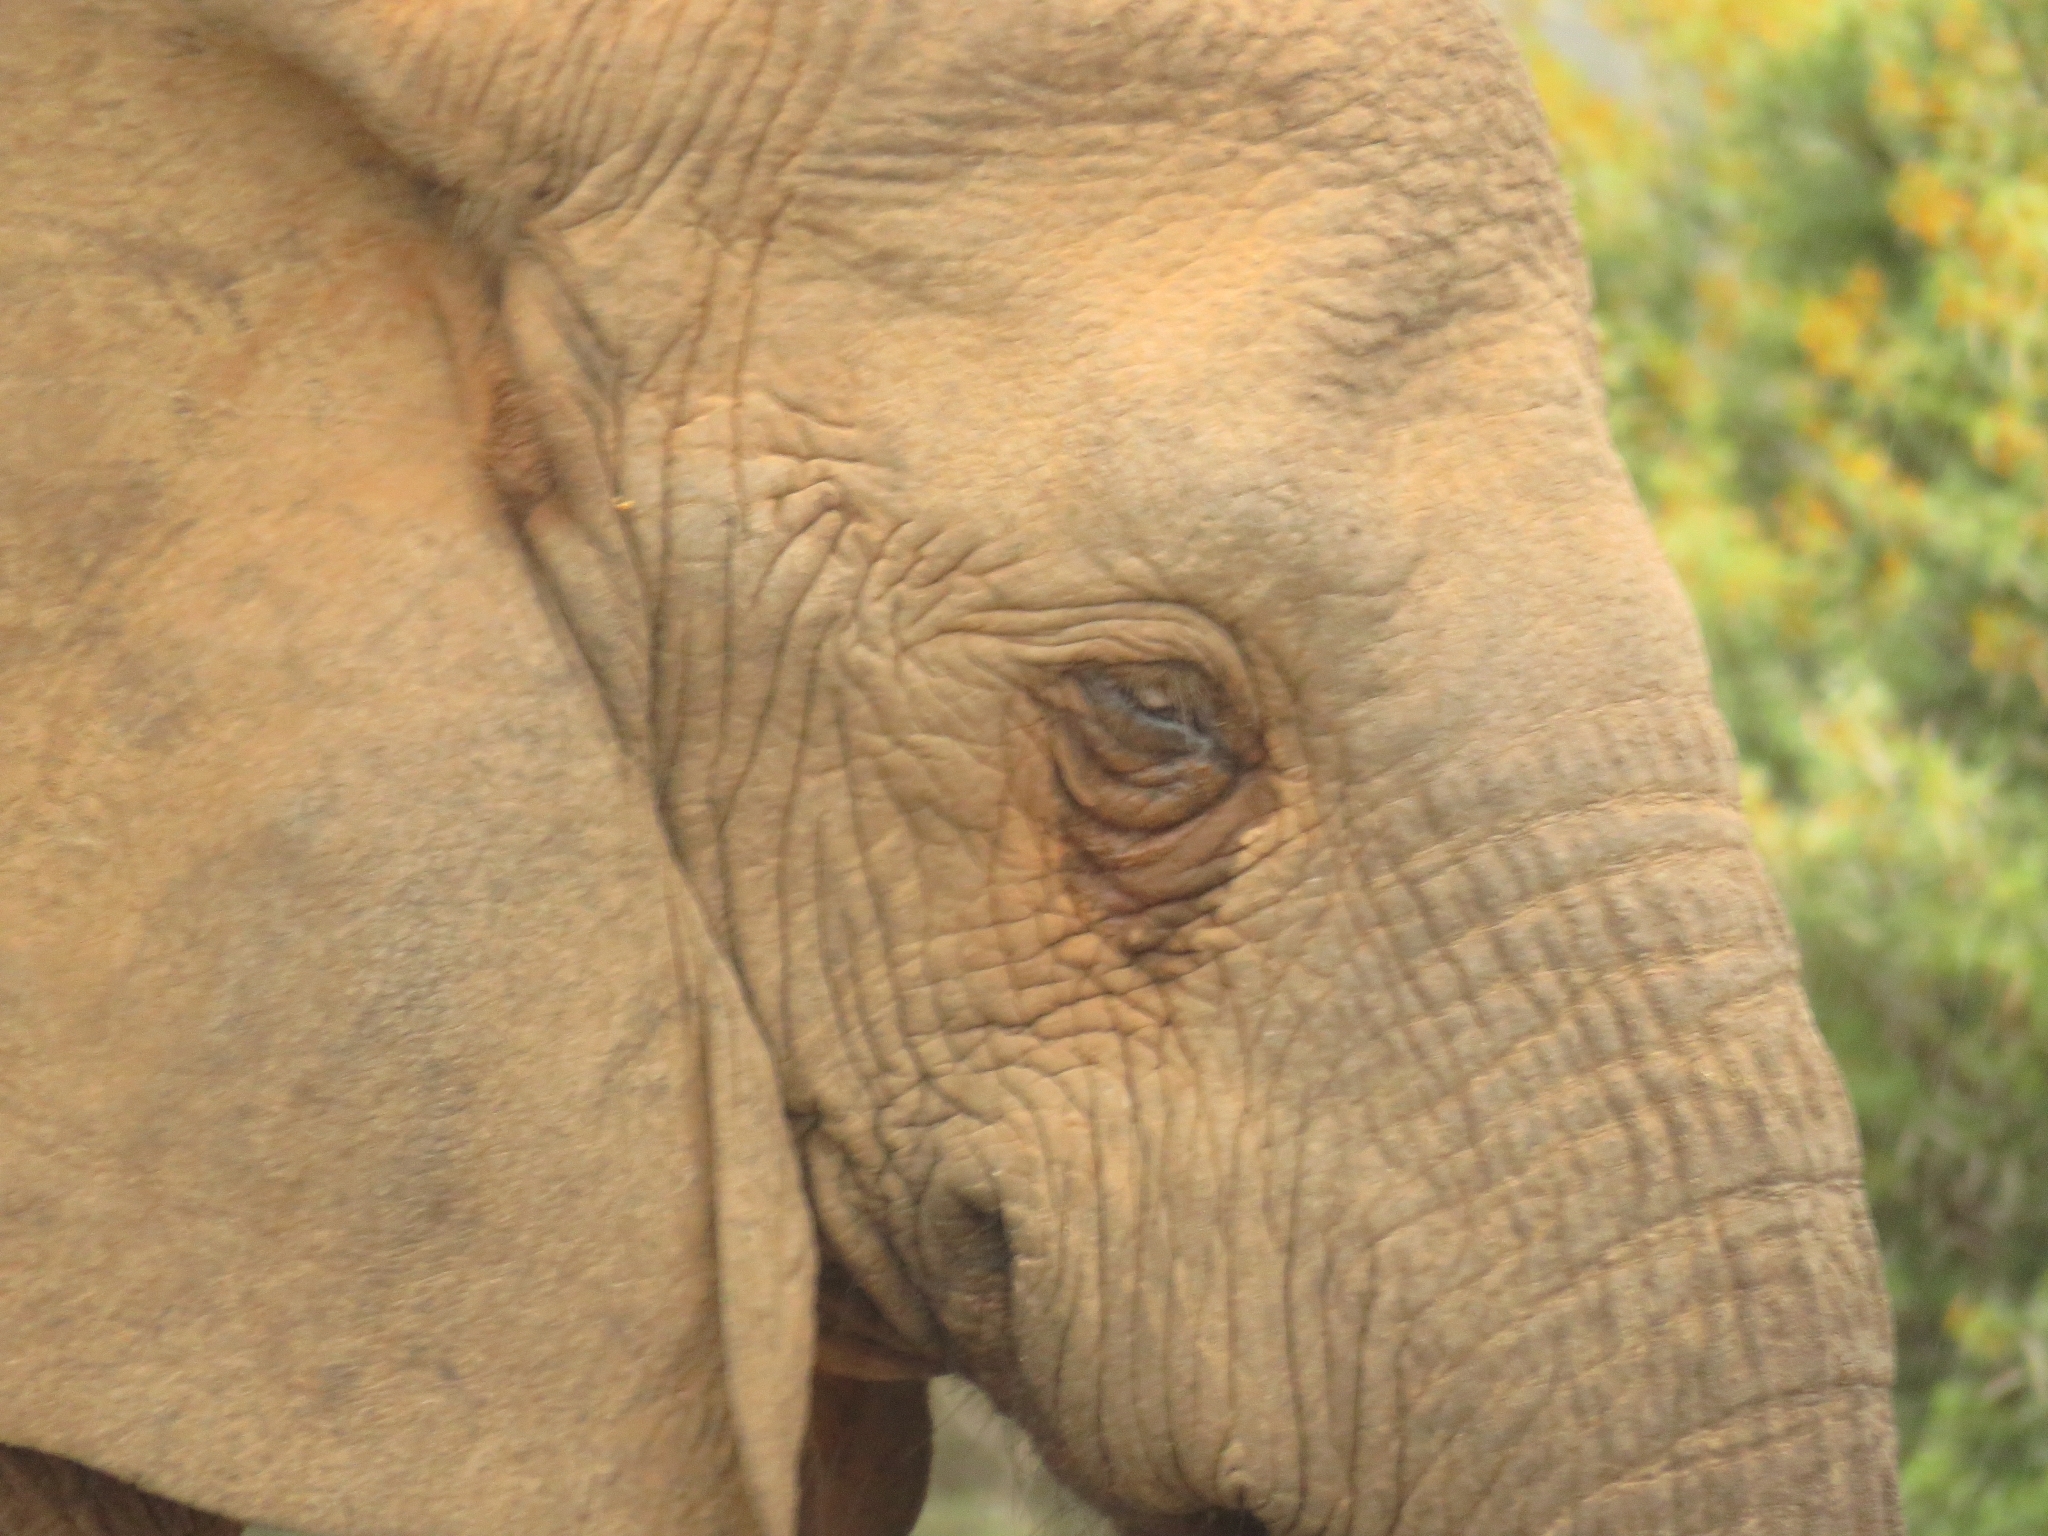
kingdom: Animalia
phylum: Chordata
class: Mammalia
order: Proboscidea
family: Elephantidae
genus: Loxodonta
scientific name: Loxodonta africana
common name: African elephant
